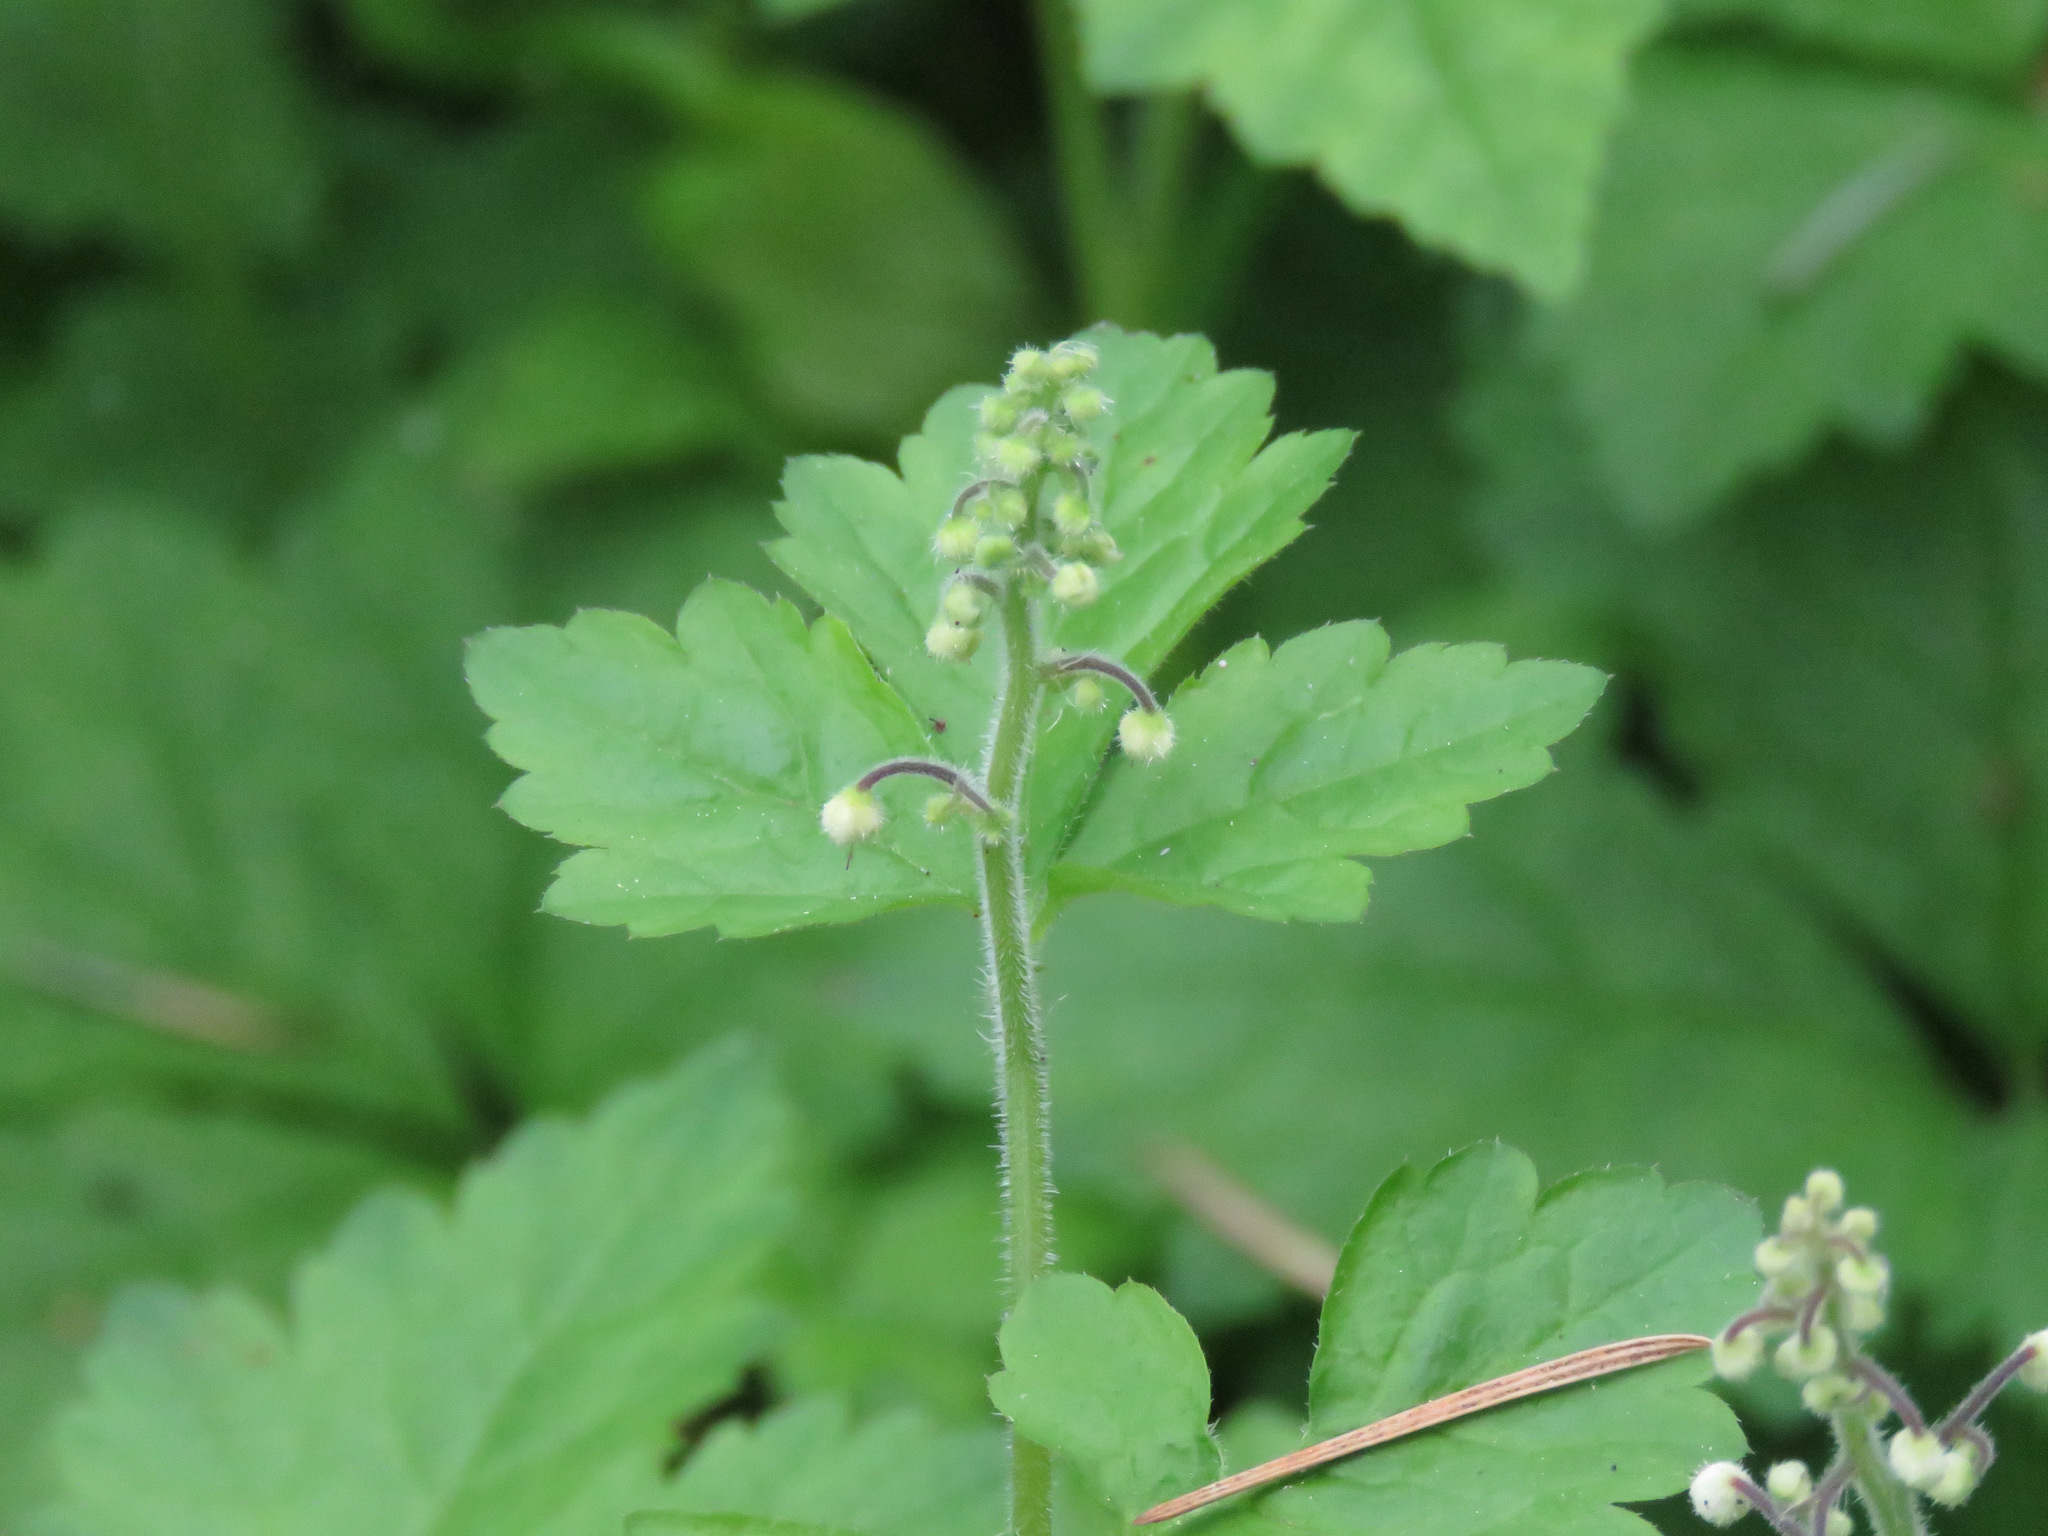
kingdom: Plantae
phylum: Tracheophyta
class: Magnoliopsida
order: Saxifragales
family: Saxifragaceae
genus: Tiarella
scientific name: Tiarella trifoliata
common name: Sugar-scoop
